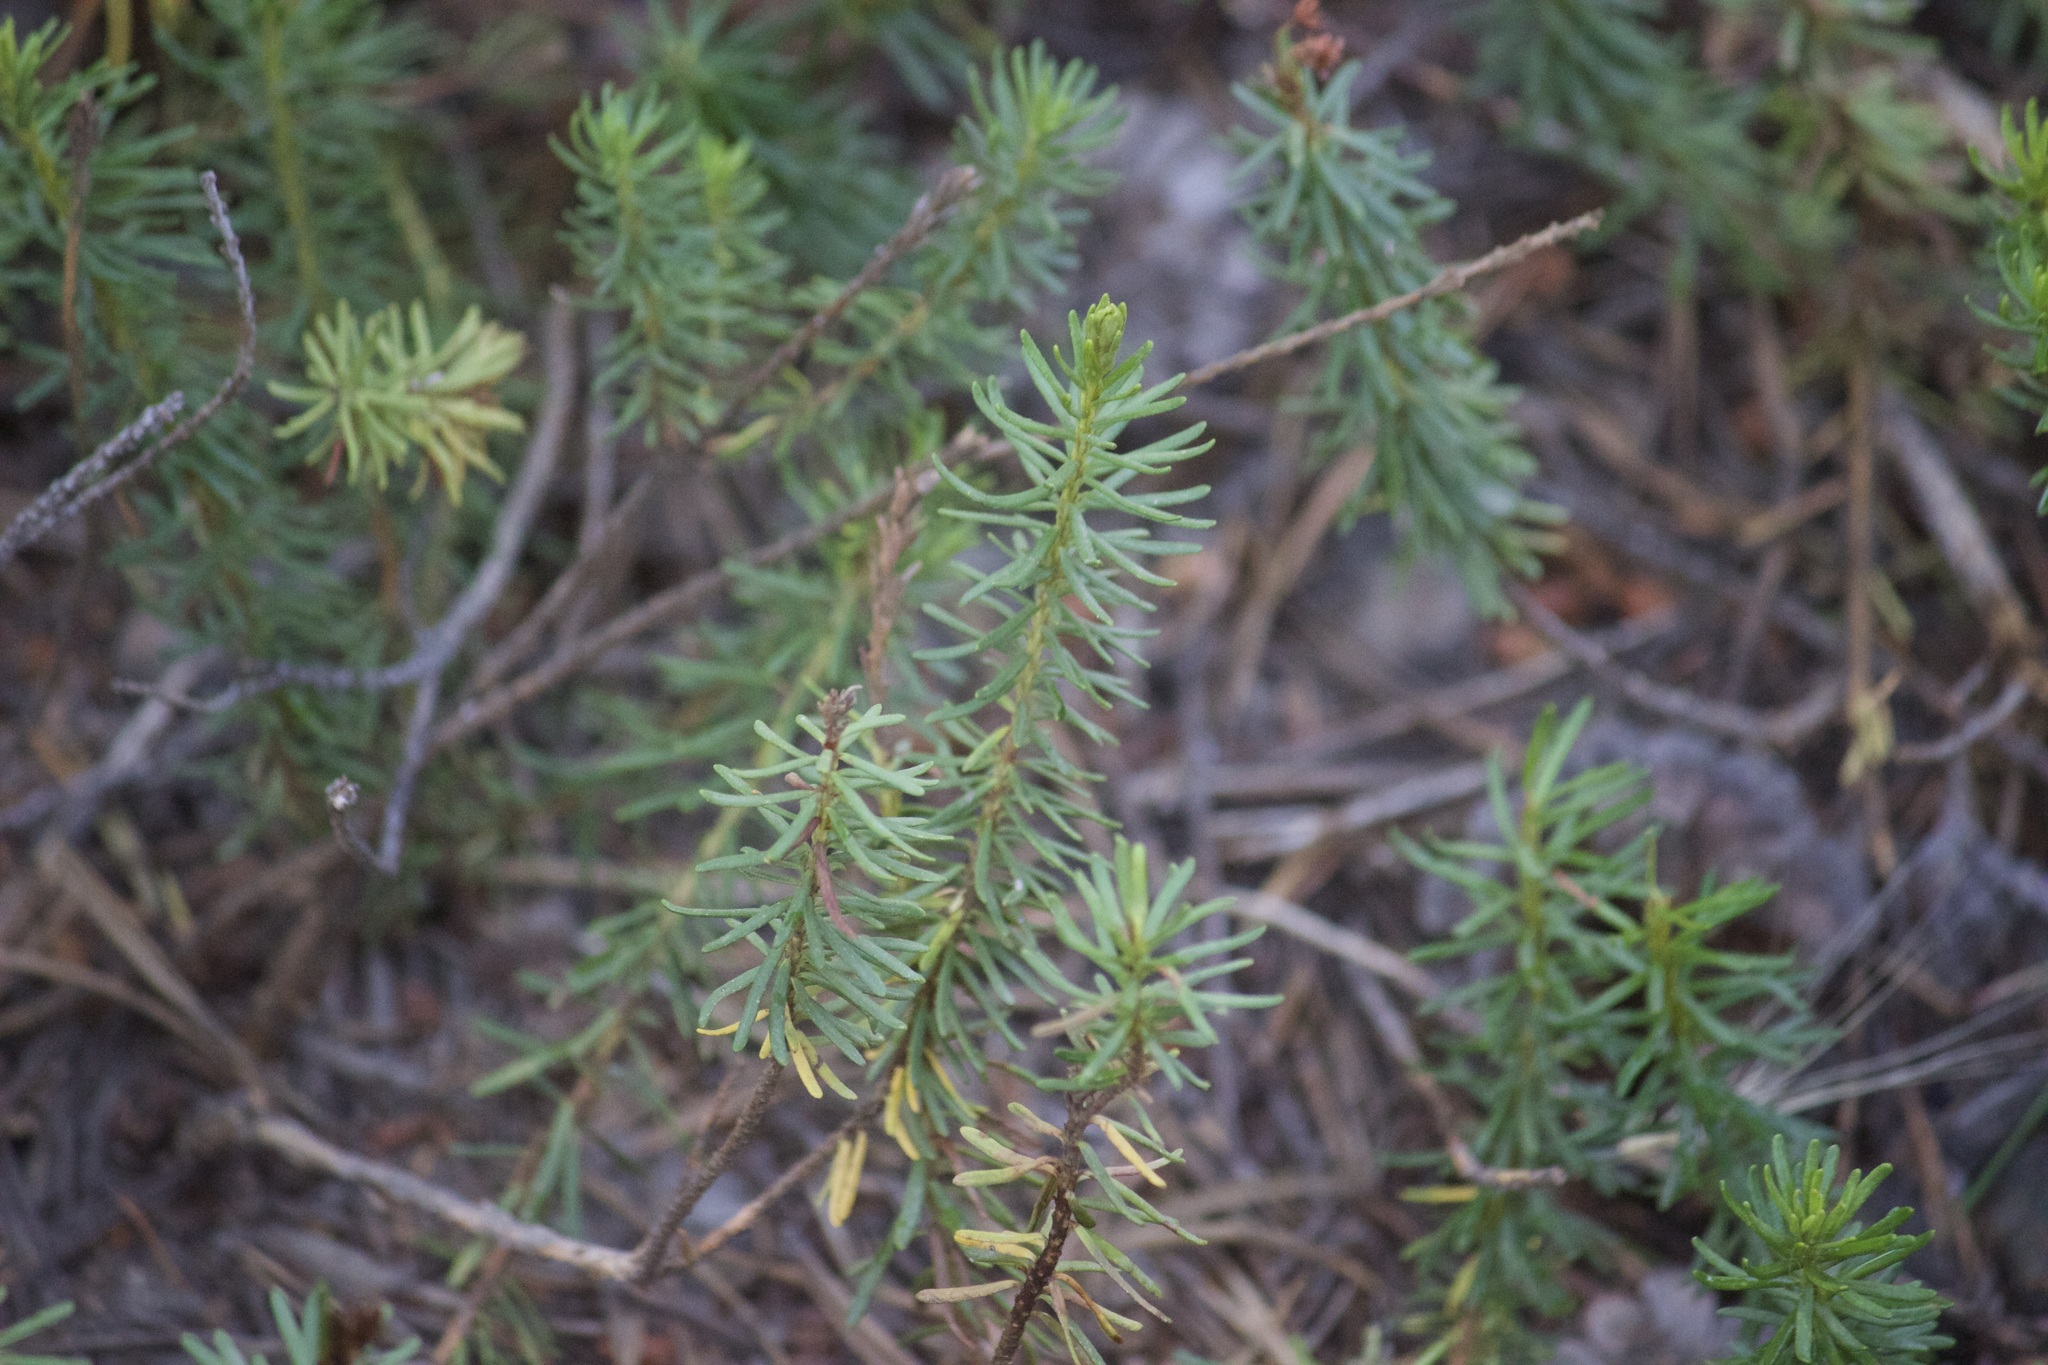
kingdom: Plantae
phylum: Tracheophyta
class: Magnoliopsida
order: Ericales
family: Ericaceae
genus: Phyllodoce
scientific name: Phyllodoce breweri
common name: Brewer's mountain-heather
